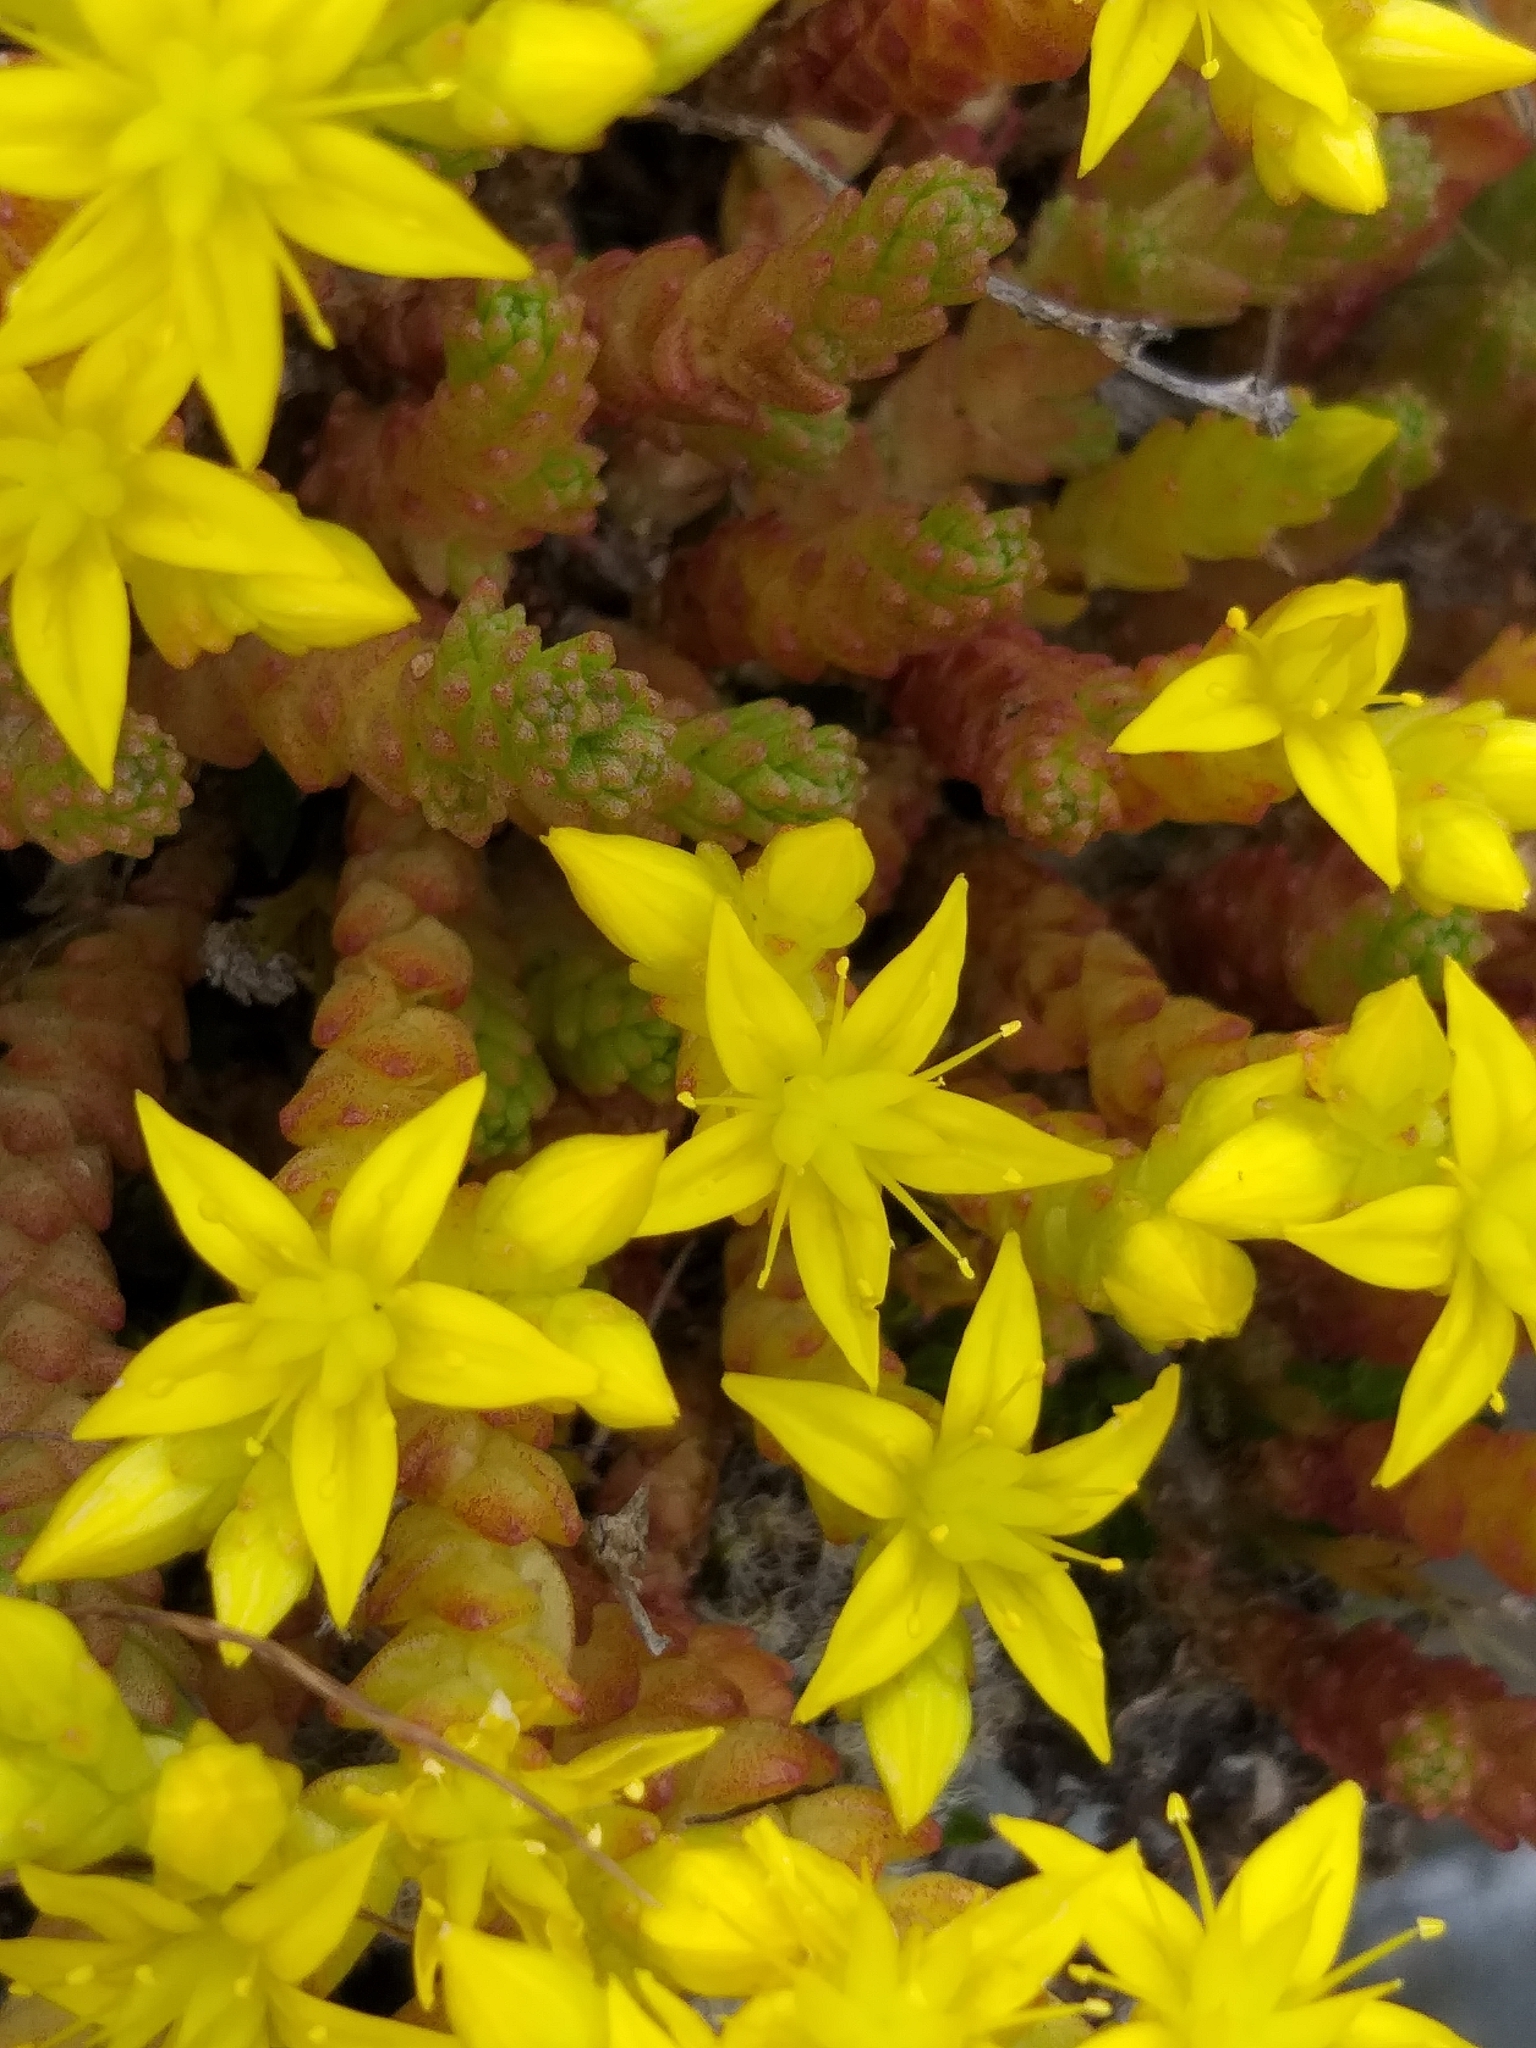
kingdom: Plantae
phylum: Tracheophyta
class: Magnoliopsida
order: Saxifragales
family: Crassulaceae
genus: Sedum
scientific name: Sedum acre
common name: Biting stonecrop
